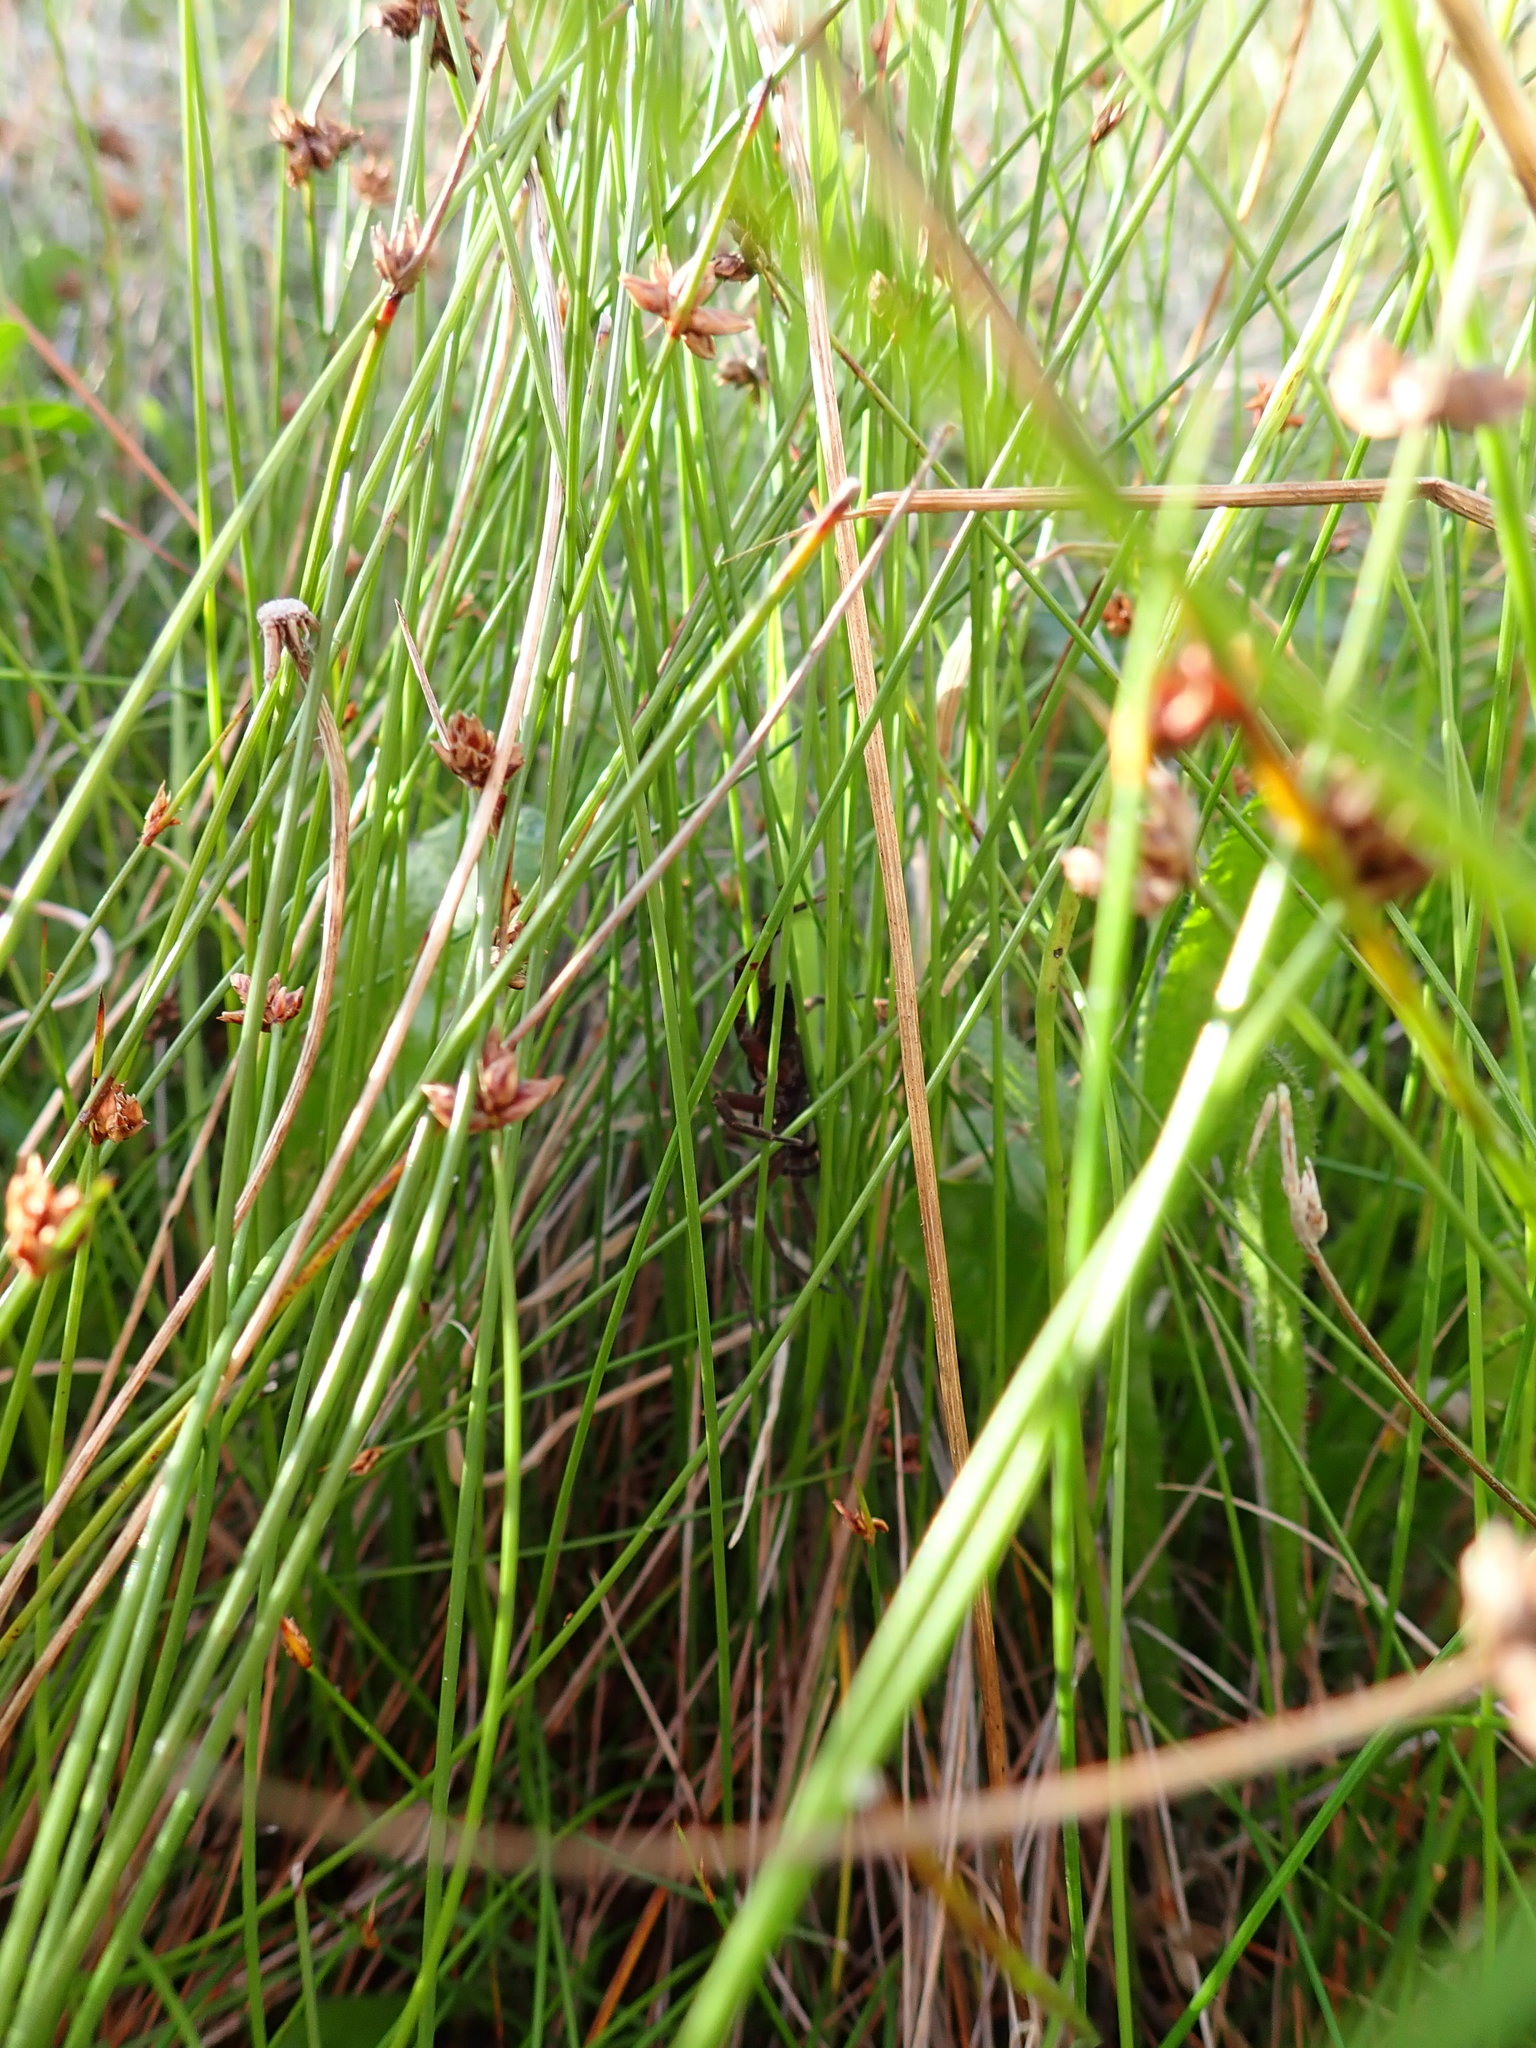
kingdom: Animalia
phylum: Arthropoda
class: Arachnida
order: Araneae
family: Pisauridae
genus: Dolomedes
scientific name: Dolomedes minor
